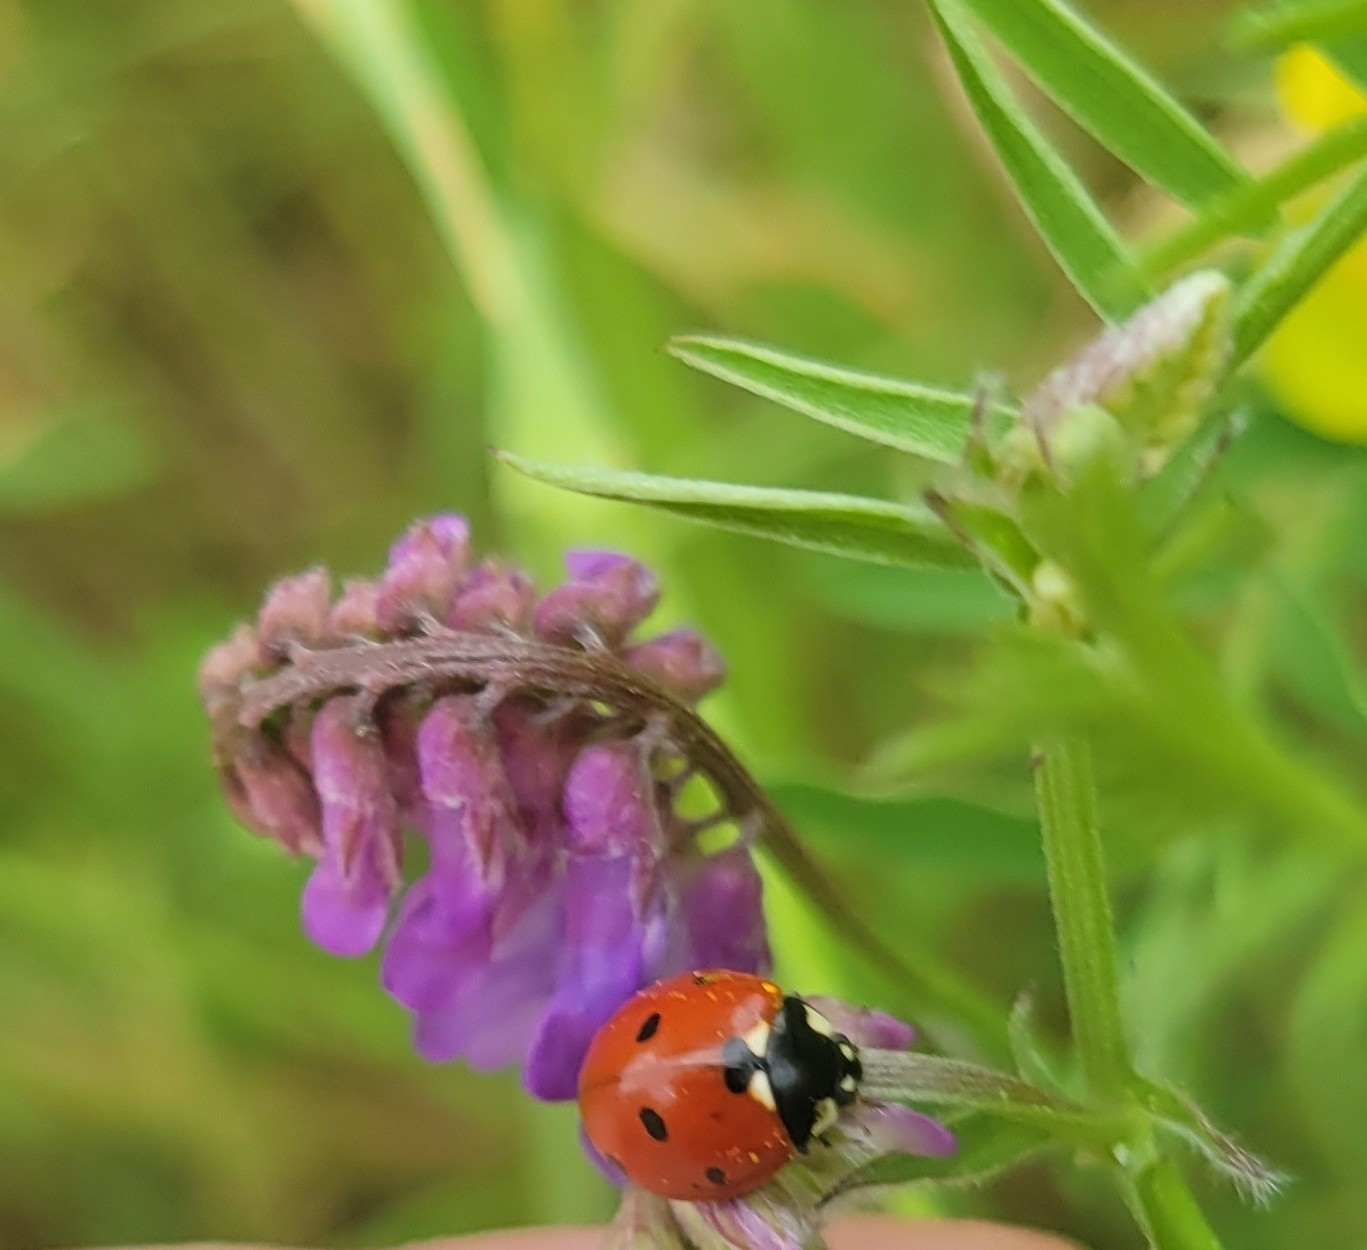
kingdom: Animalia
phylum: Arthropoda
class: Insecta
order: Coleoptera
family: Coccinellidae
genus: Coccinella
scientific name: Coccinella septempunctata
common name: Sevenspotted lady beetle
